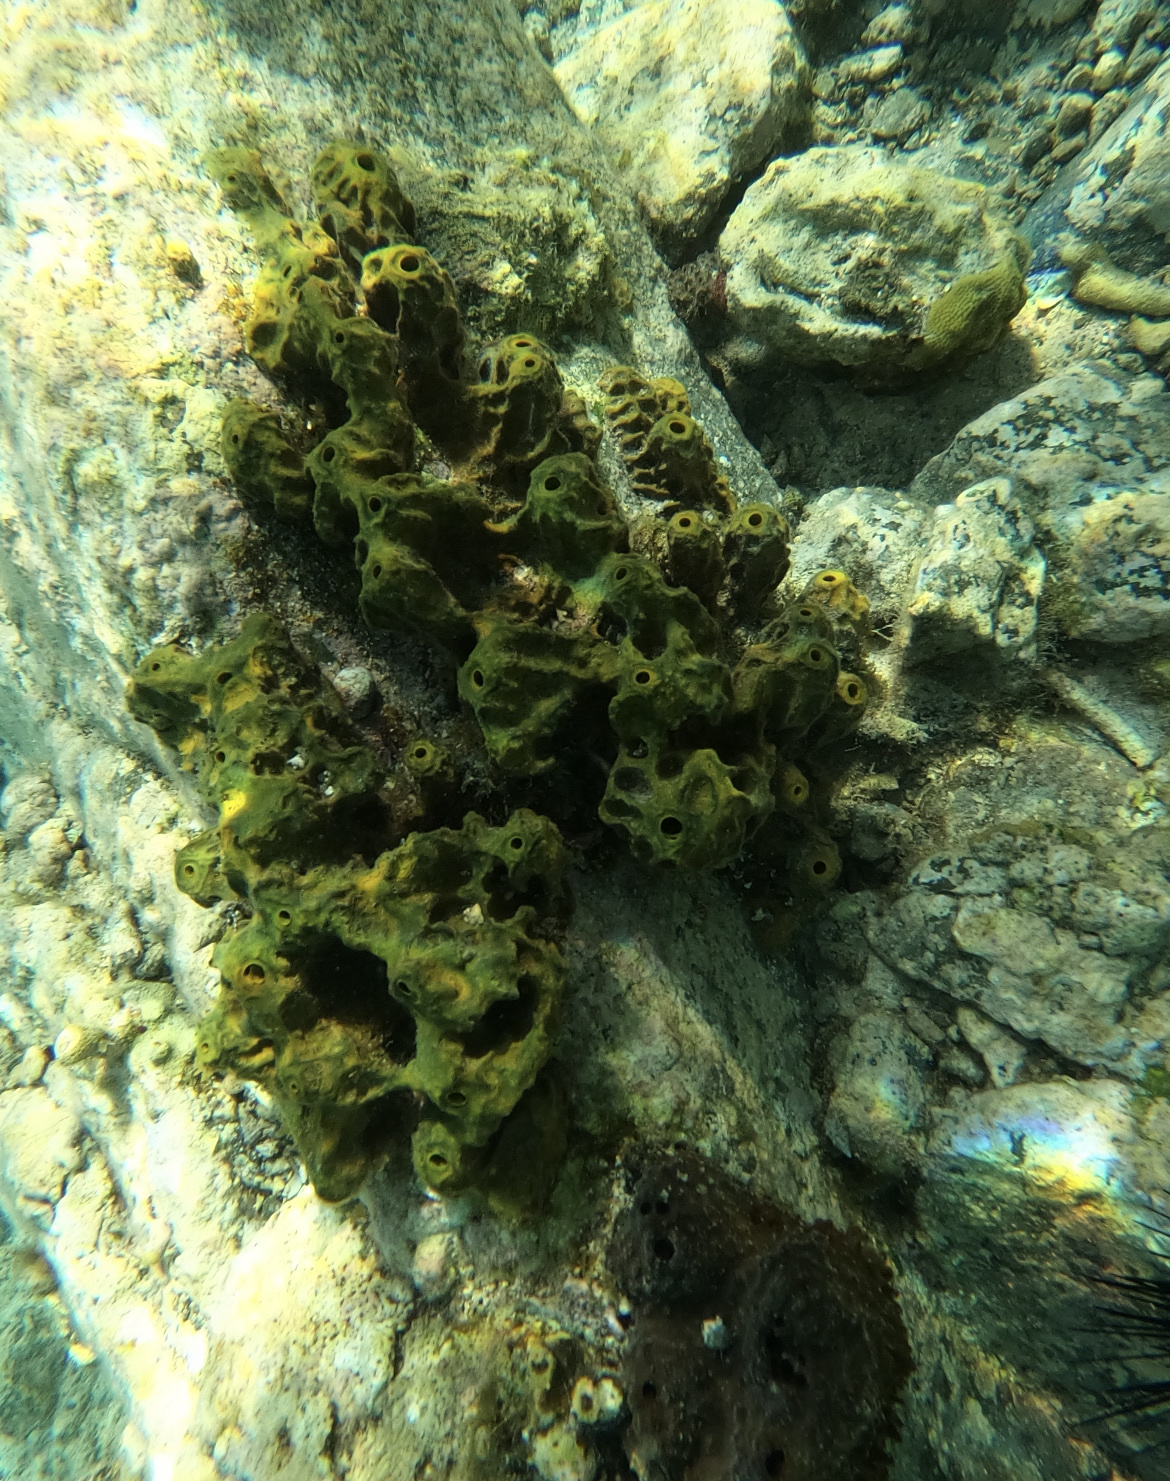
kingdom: Animalia
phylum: Porifera
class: Demospongiae
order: Verongiida
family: Aplysinidae
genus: Verongula
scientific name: Verongula rigida
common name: Pitted sponge
